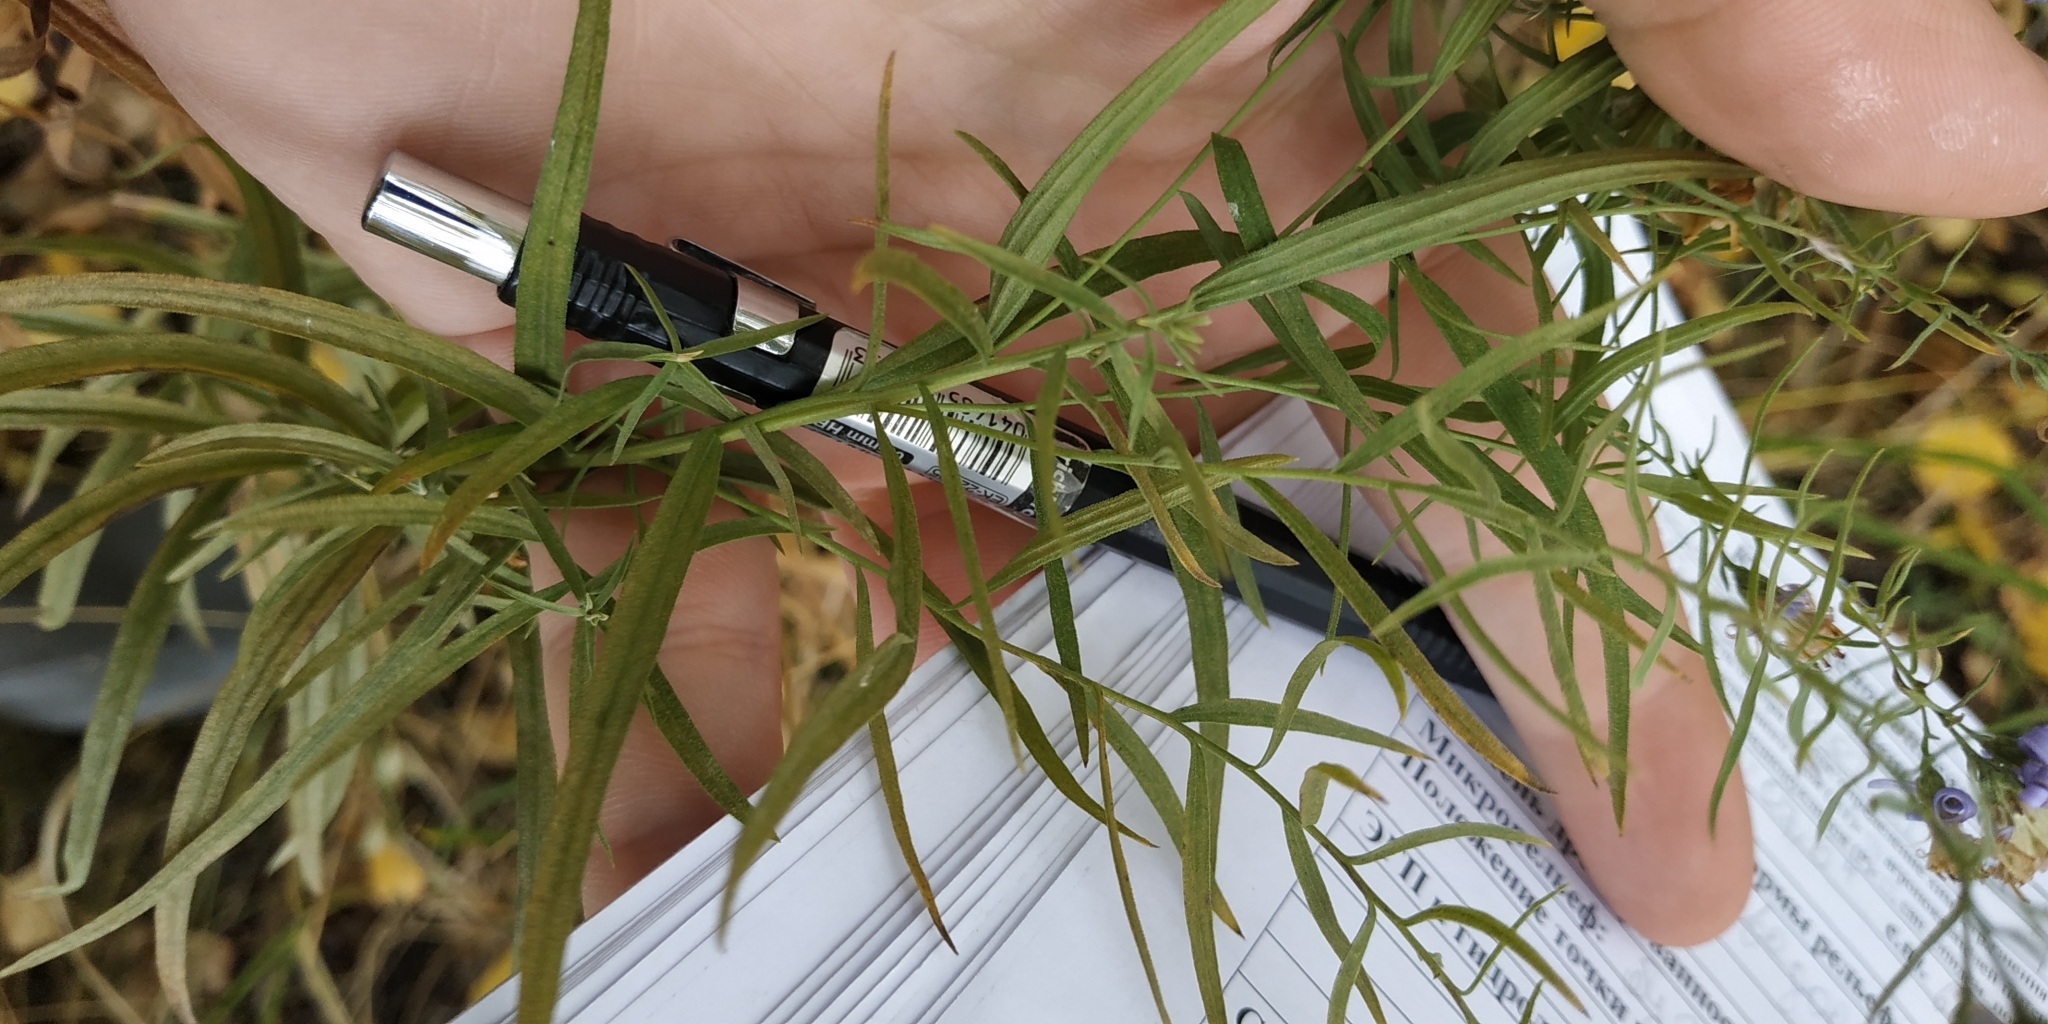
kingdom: Plantae
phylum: Tracheophyta
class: Magnoliopsida
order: Asterales
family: Asteraceae
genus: Galatella
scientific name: Galatella sedifolia
